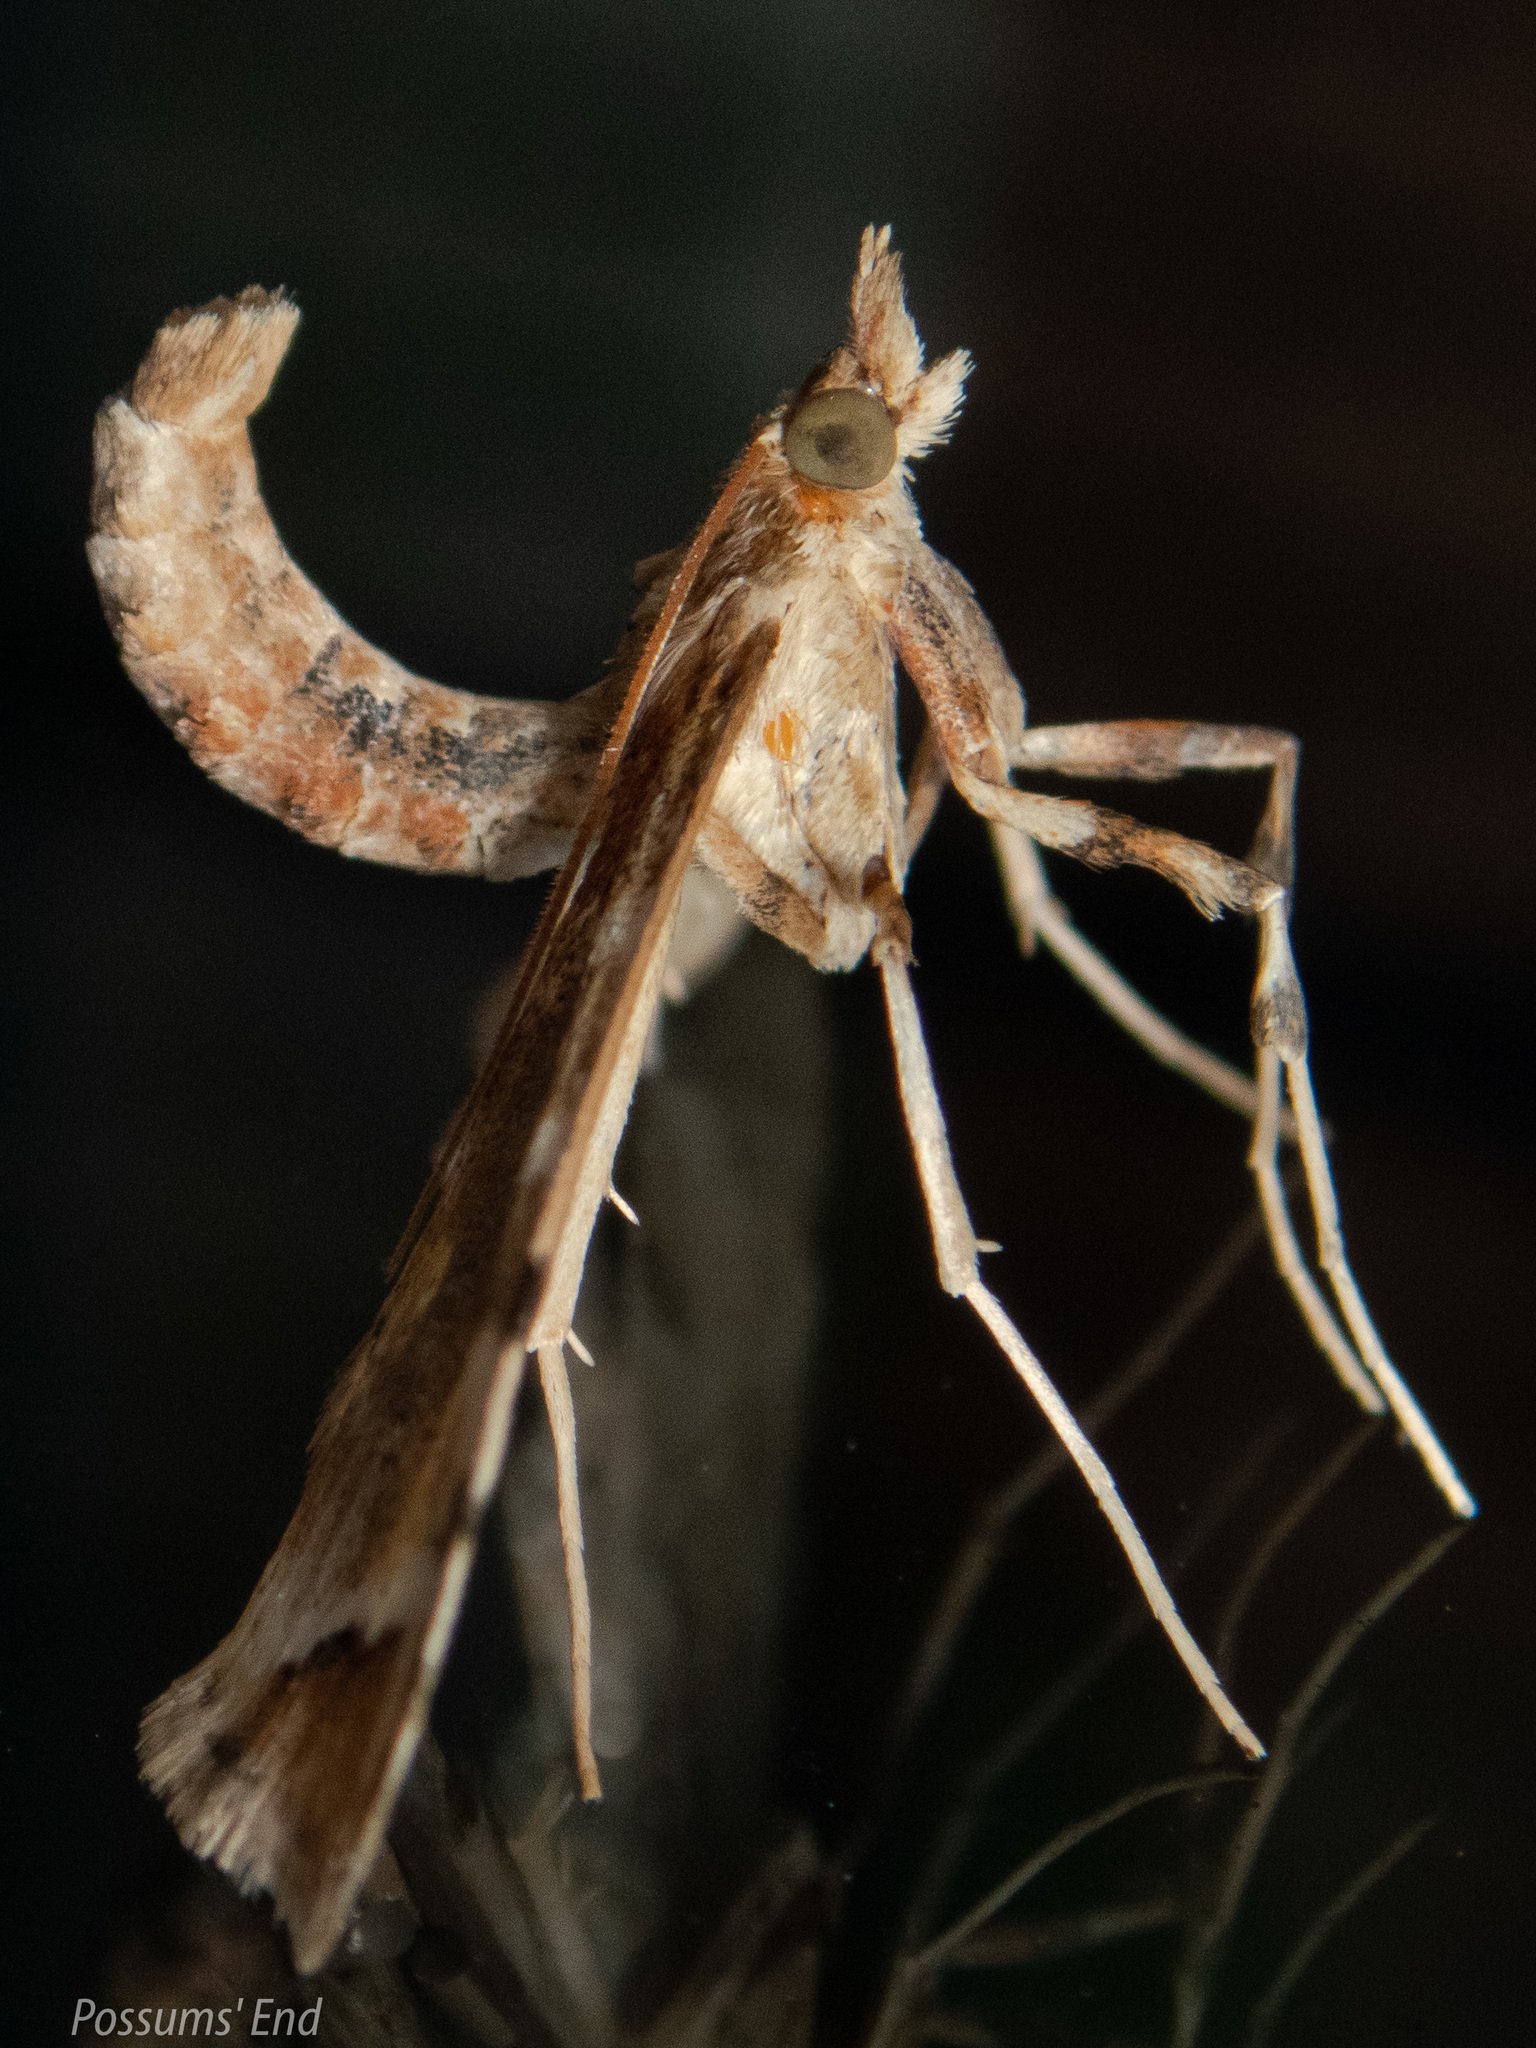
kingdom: Animalia
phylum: Arthropoda
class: Insecta
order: Lepidoptera
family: Crambidae
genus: Sceliodes
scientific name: Sceliodes cordalis
